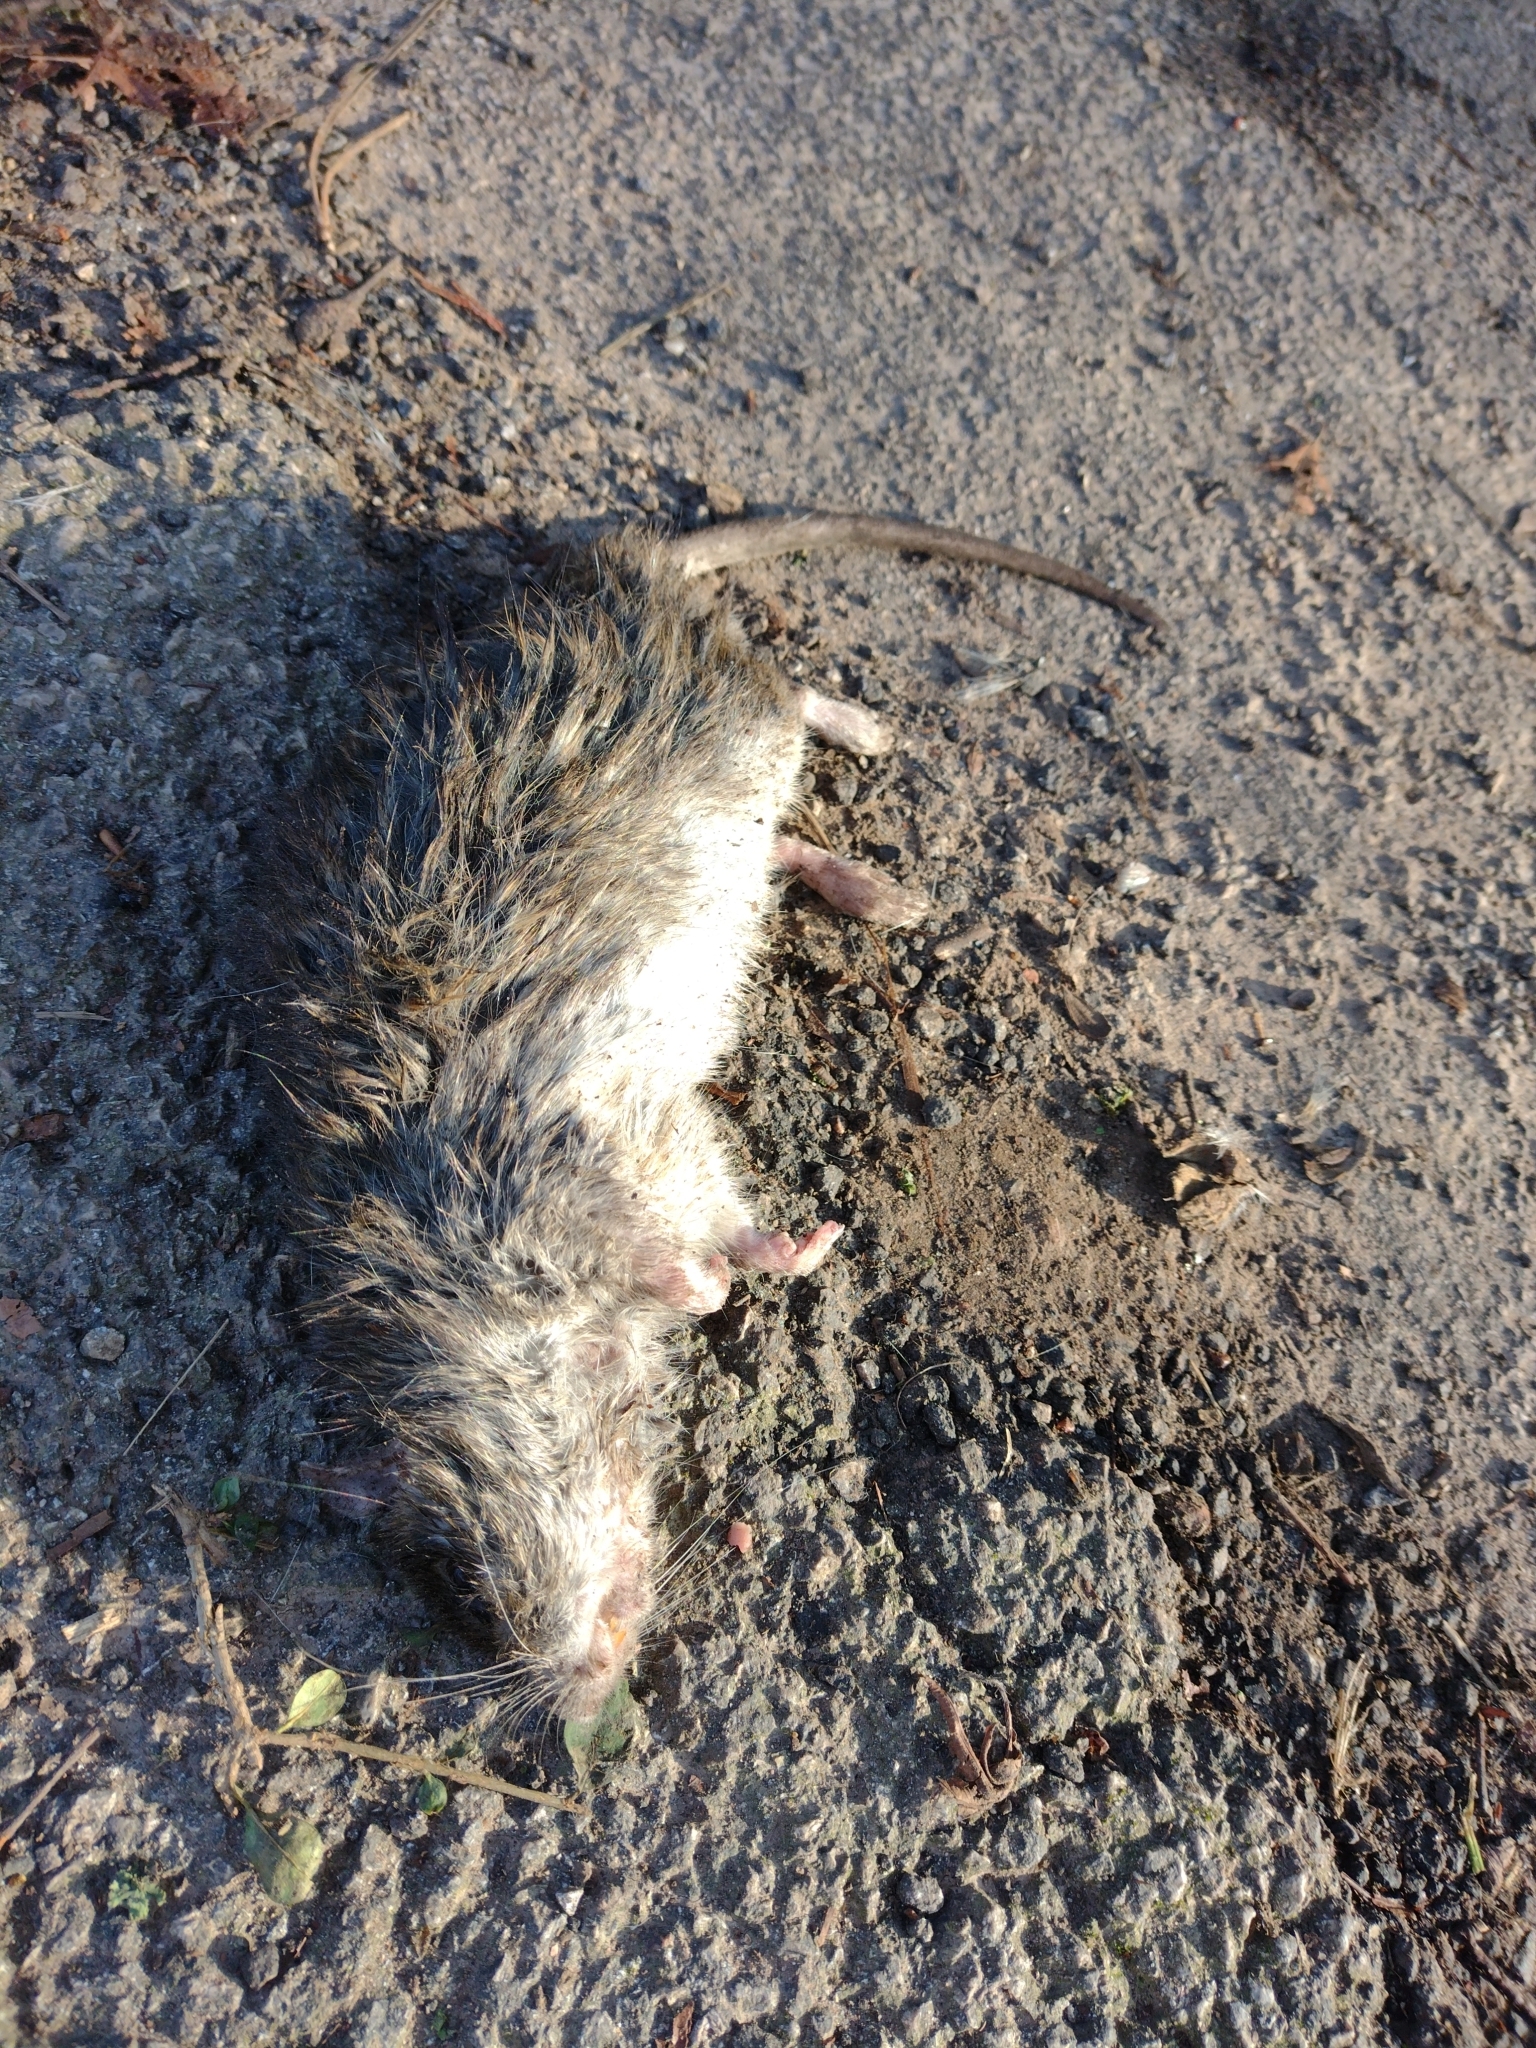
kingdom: Animalia
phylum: Chordata
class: Mammalia
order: Rodentia
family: Muridae
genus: Rattus
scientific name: Rattus norvegicus
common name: Brown rat
